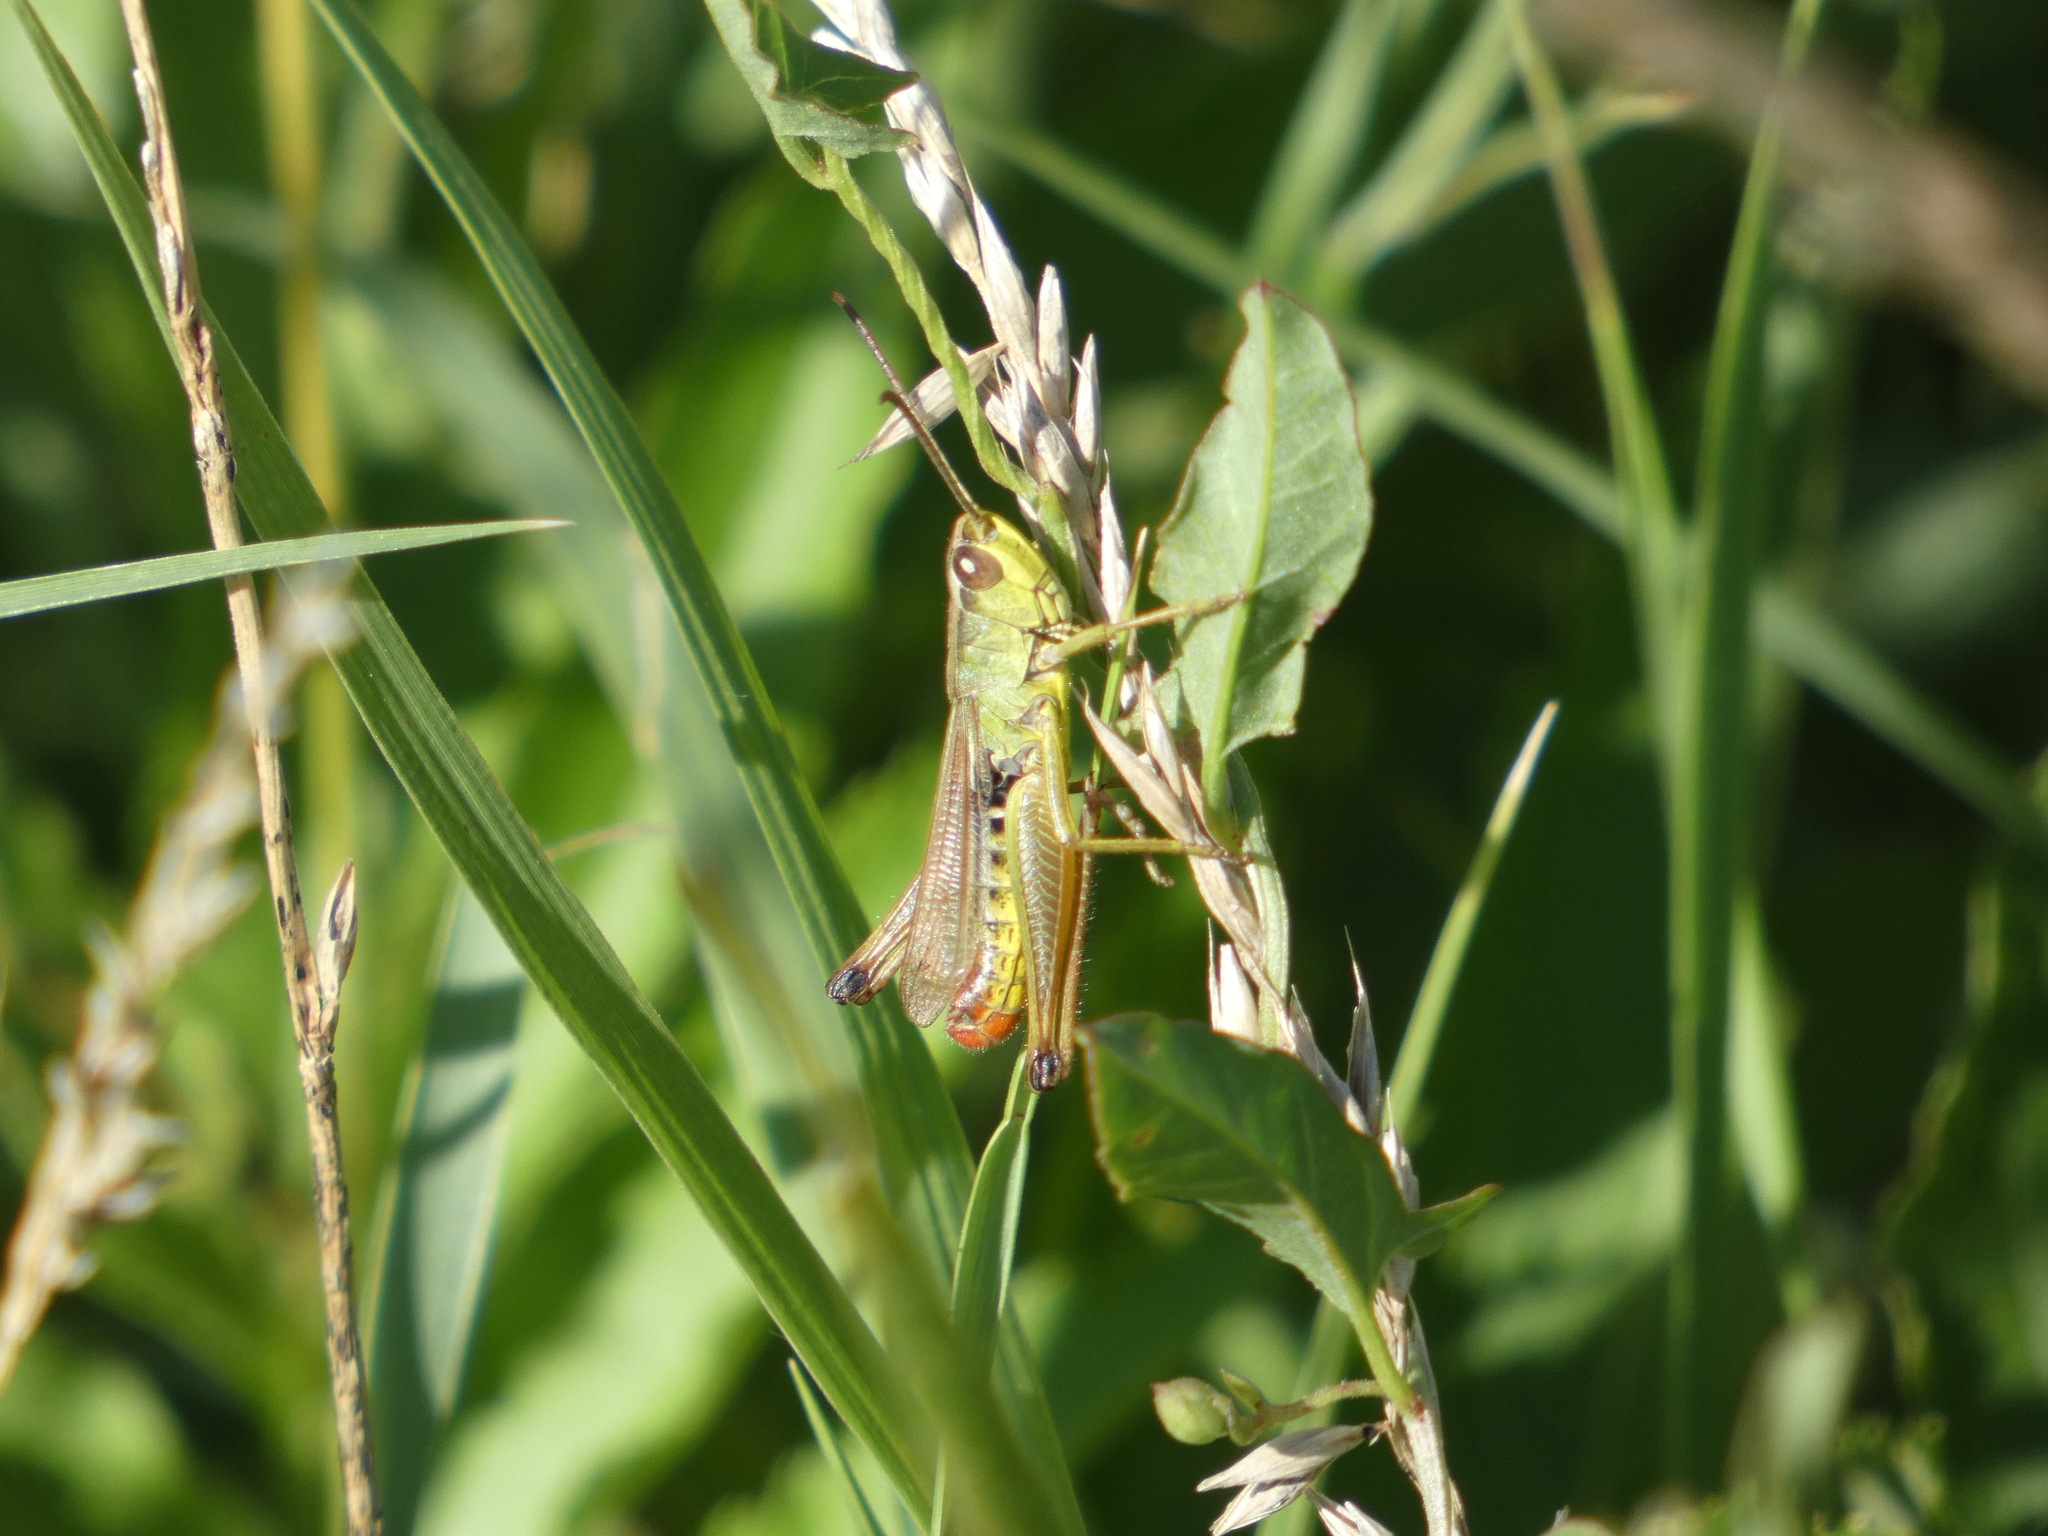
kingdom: Animalia
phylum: Arthropoda
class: Insecta
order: Orthoptera
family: Acrididae
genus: Pseudochorthippus
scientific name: Pseudochorthippus parallelus
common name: Meadow grasshopper
